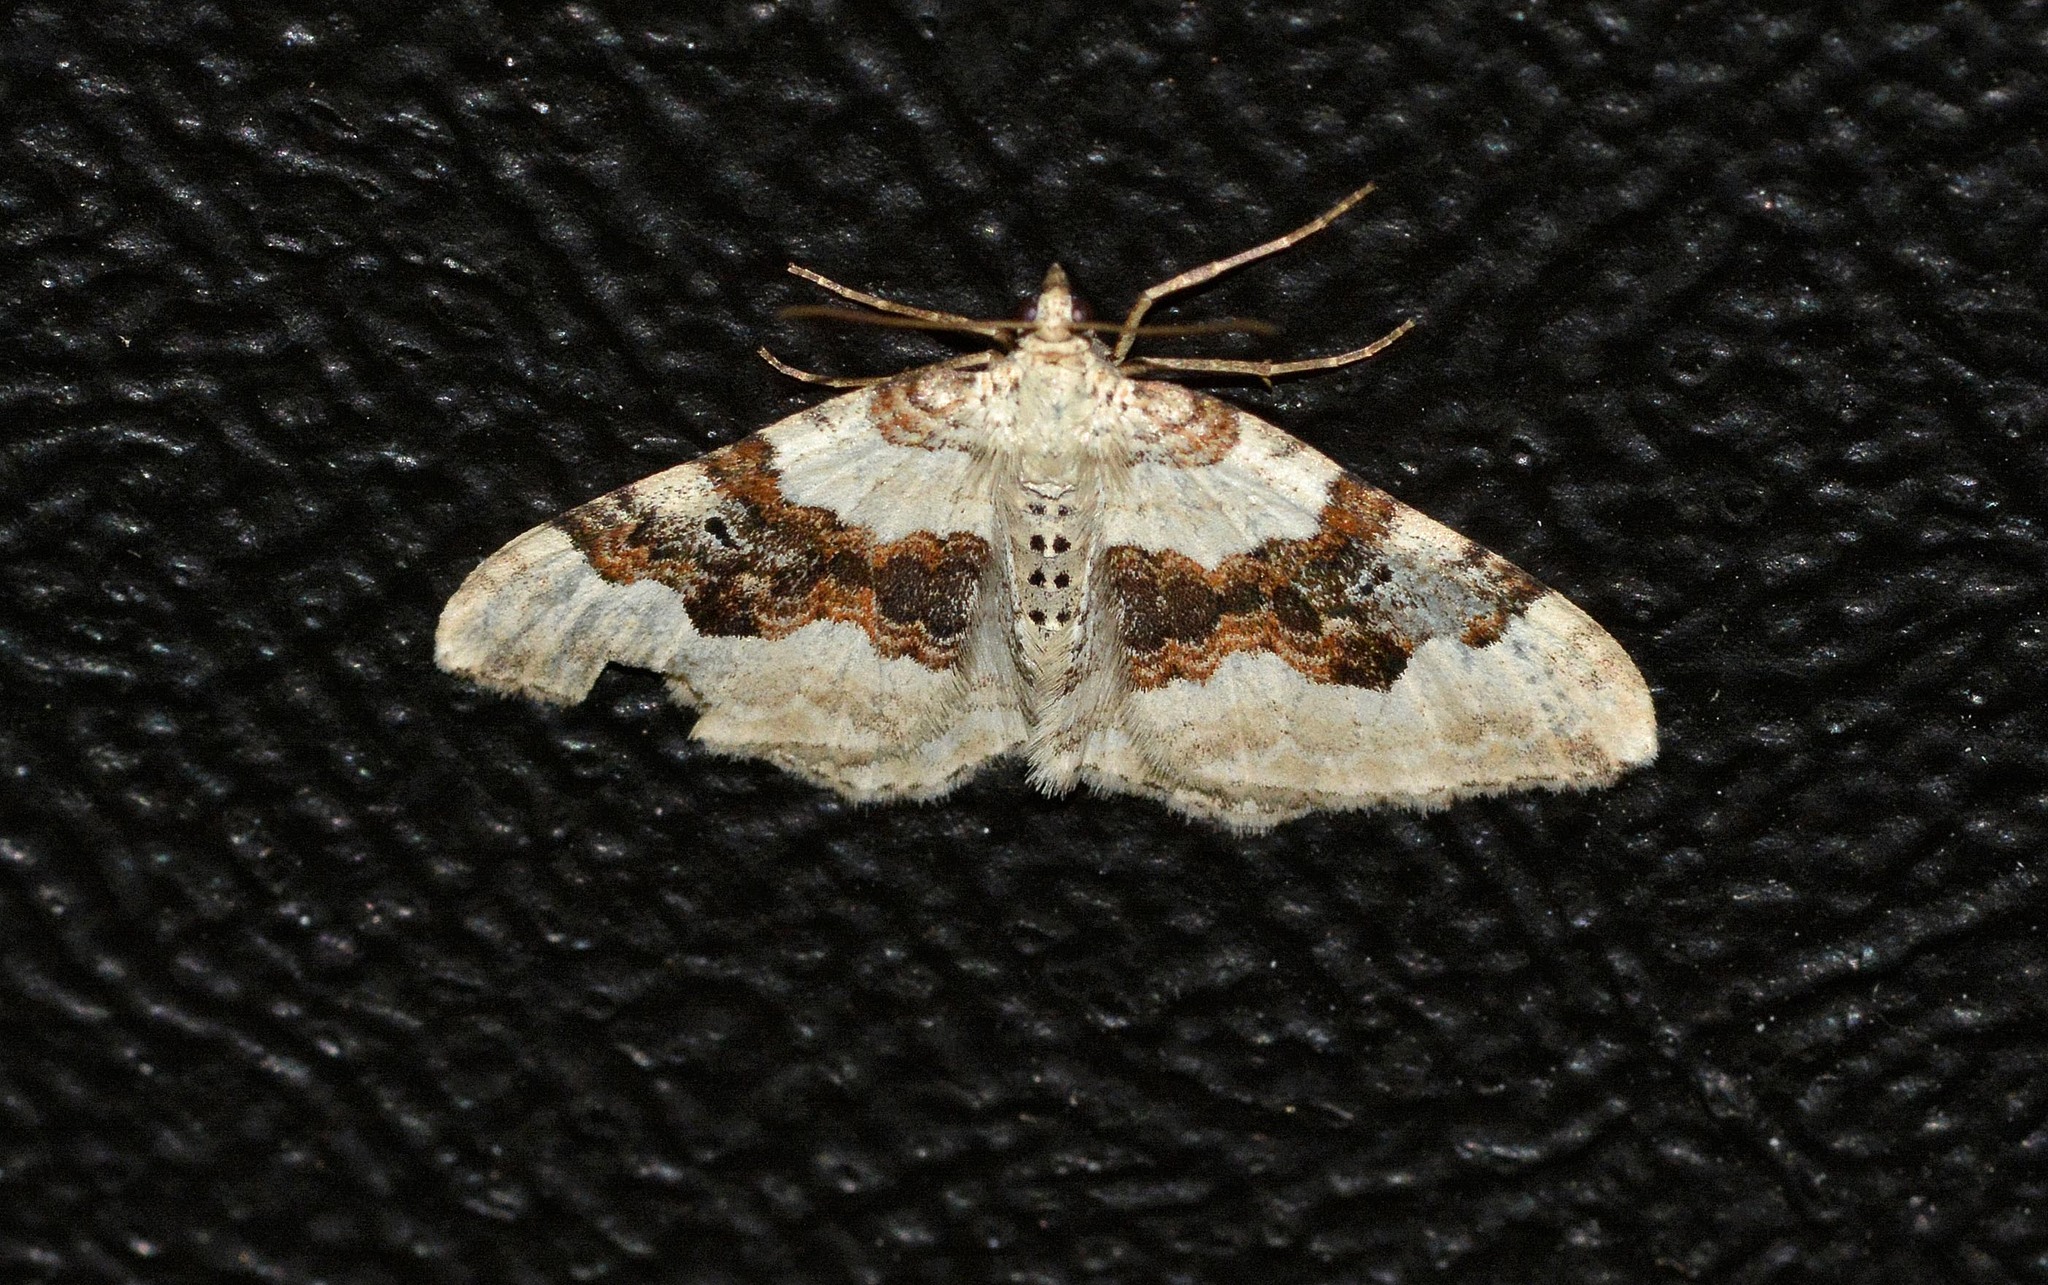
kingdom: Animalia
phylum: Arthropoda
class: Insecta
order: Lepidoptera
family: Geometridae
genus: Xanthorhoe
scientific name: Xanthorhoe montanata
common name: Silver-ground carpet
